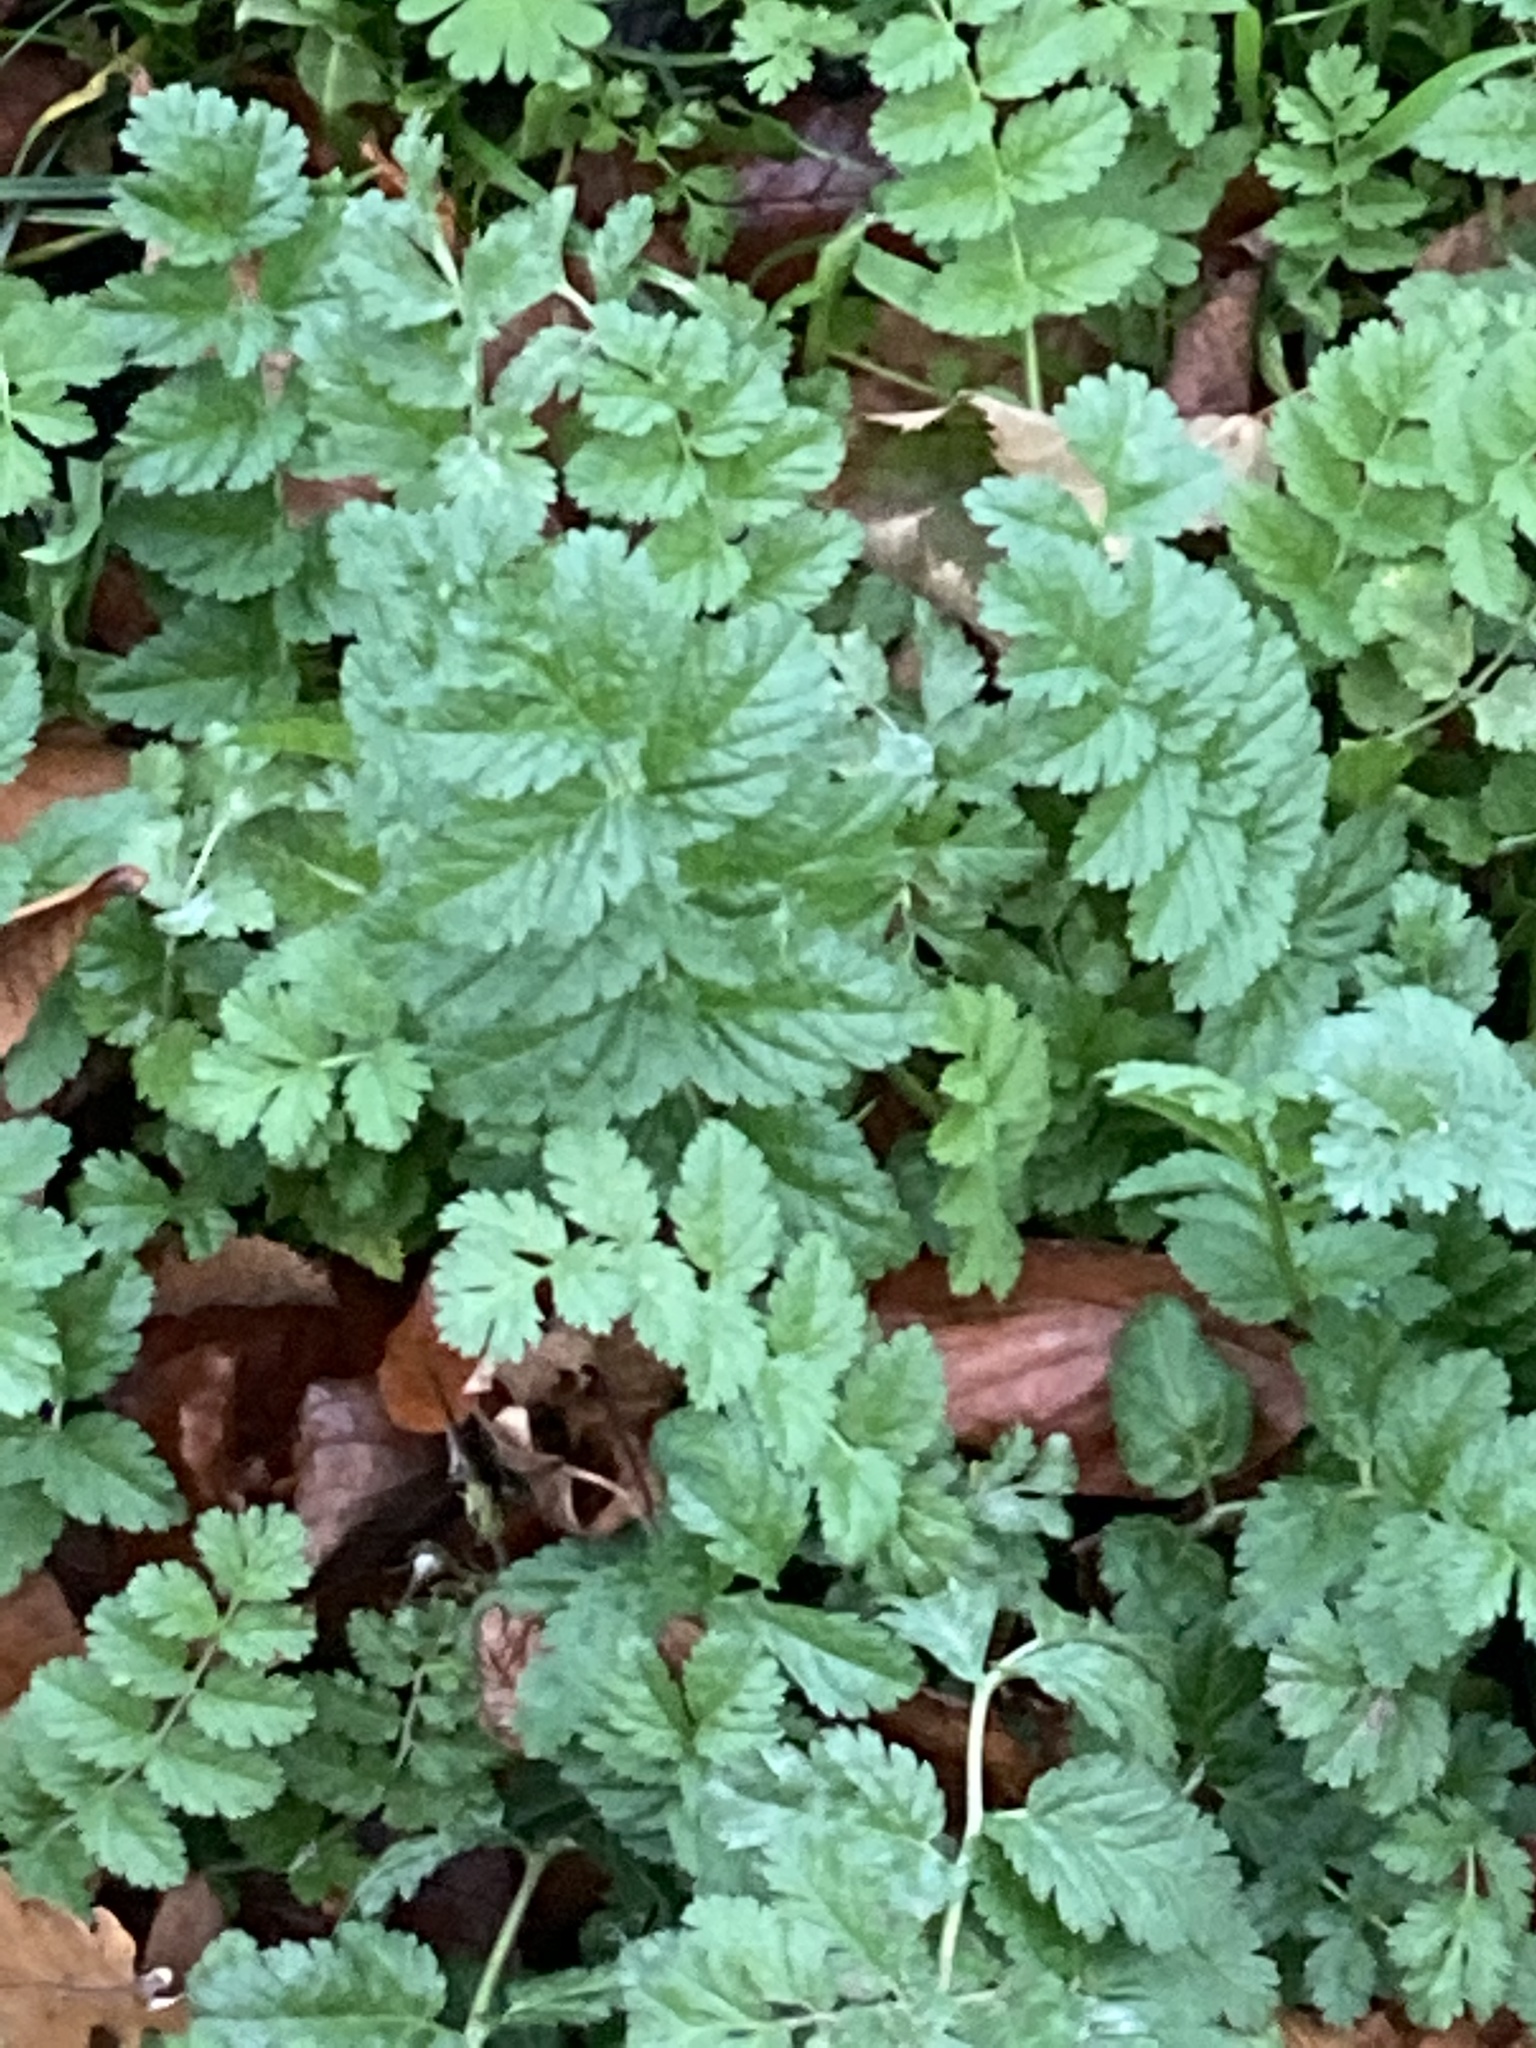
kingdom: Plantae
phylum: Tracheophyta
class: Magnoliopsida
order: Geraniales
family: Geraniaceae
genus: Erodium
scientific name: Erodium moschatum
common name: Musk stork's-bill
